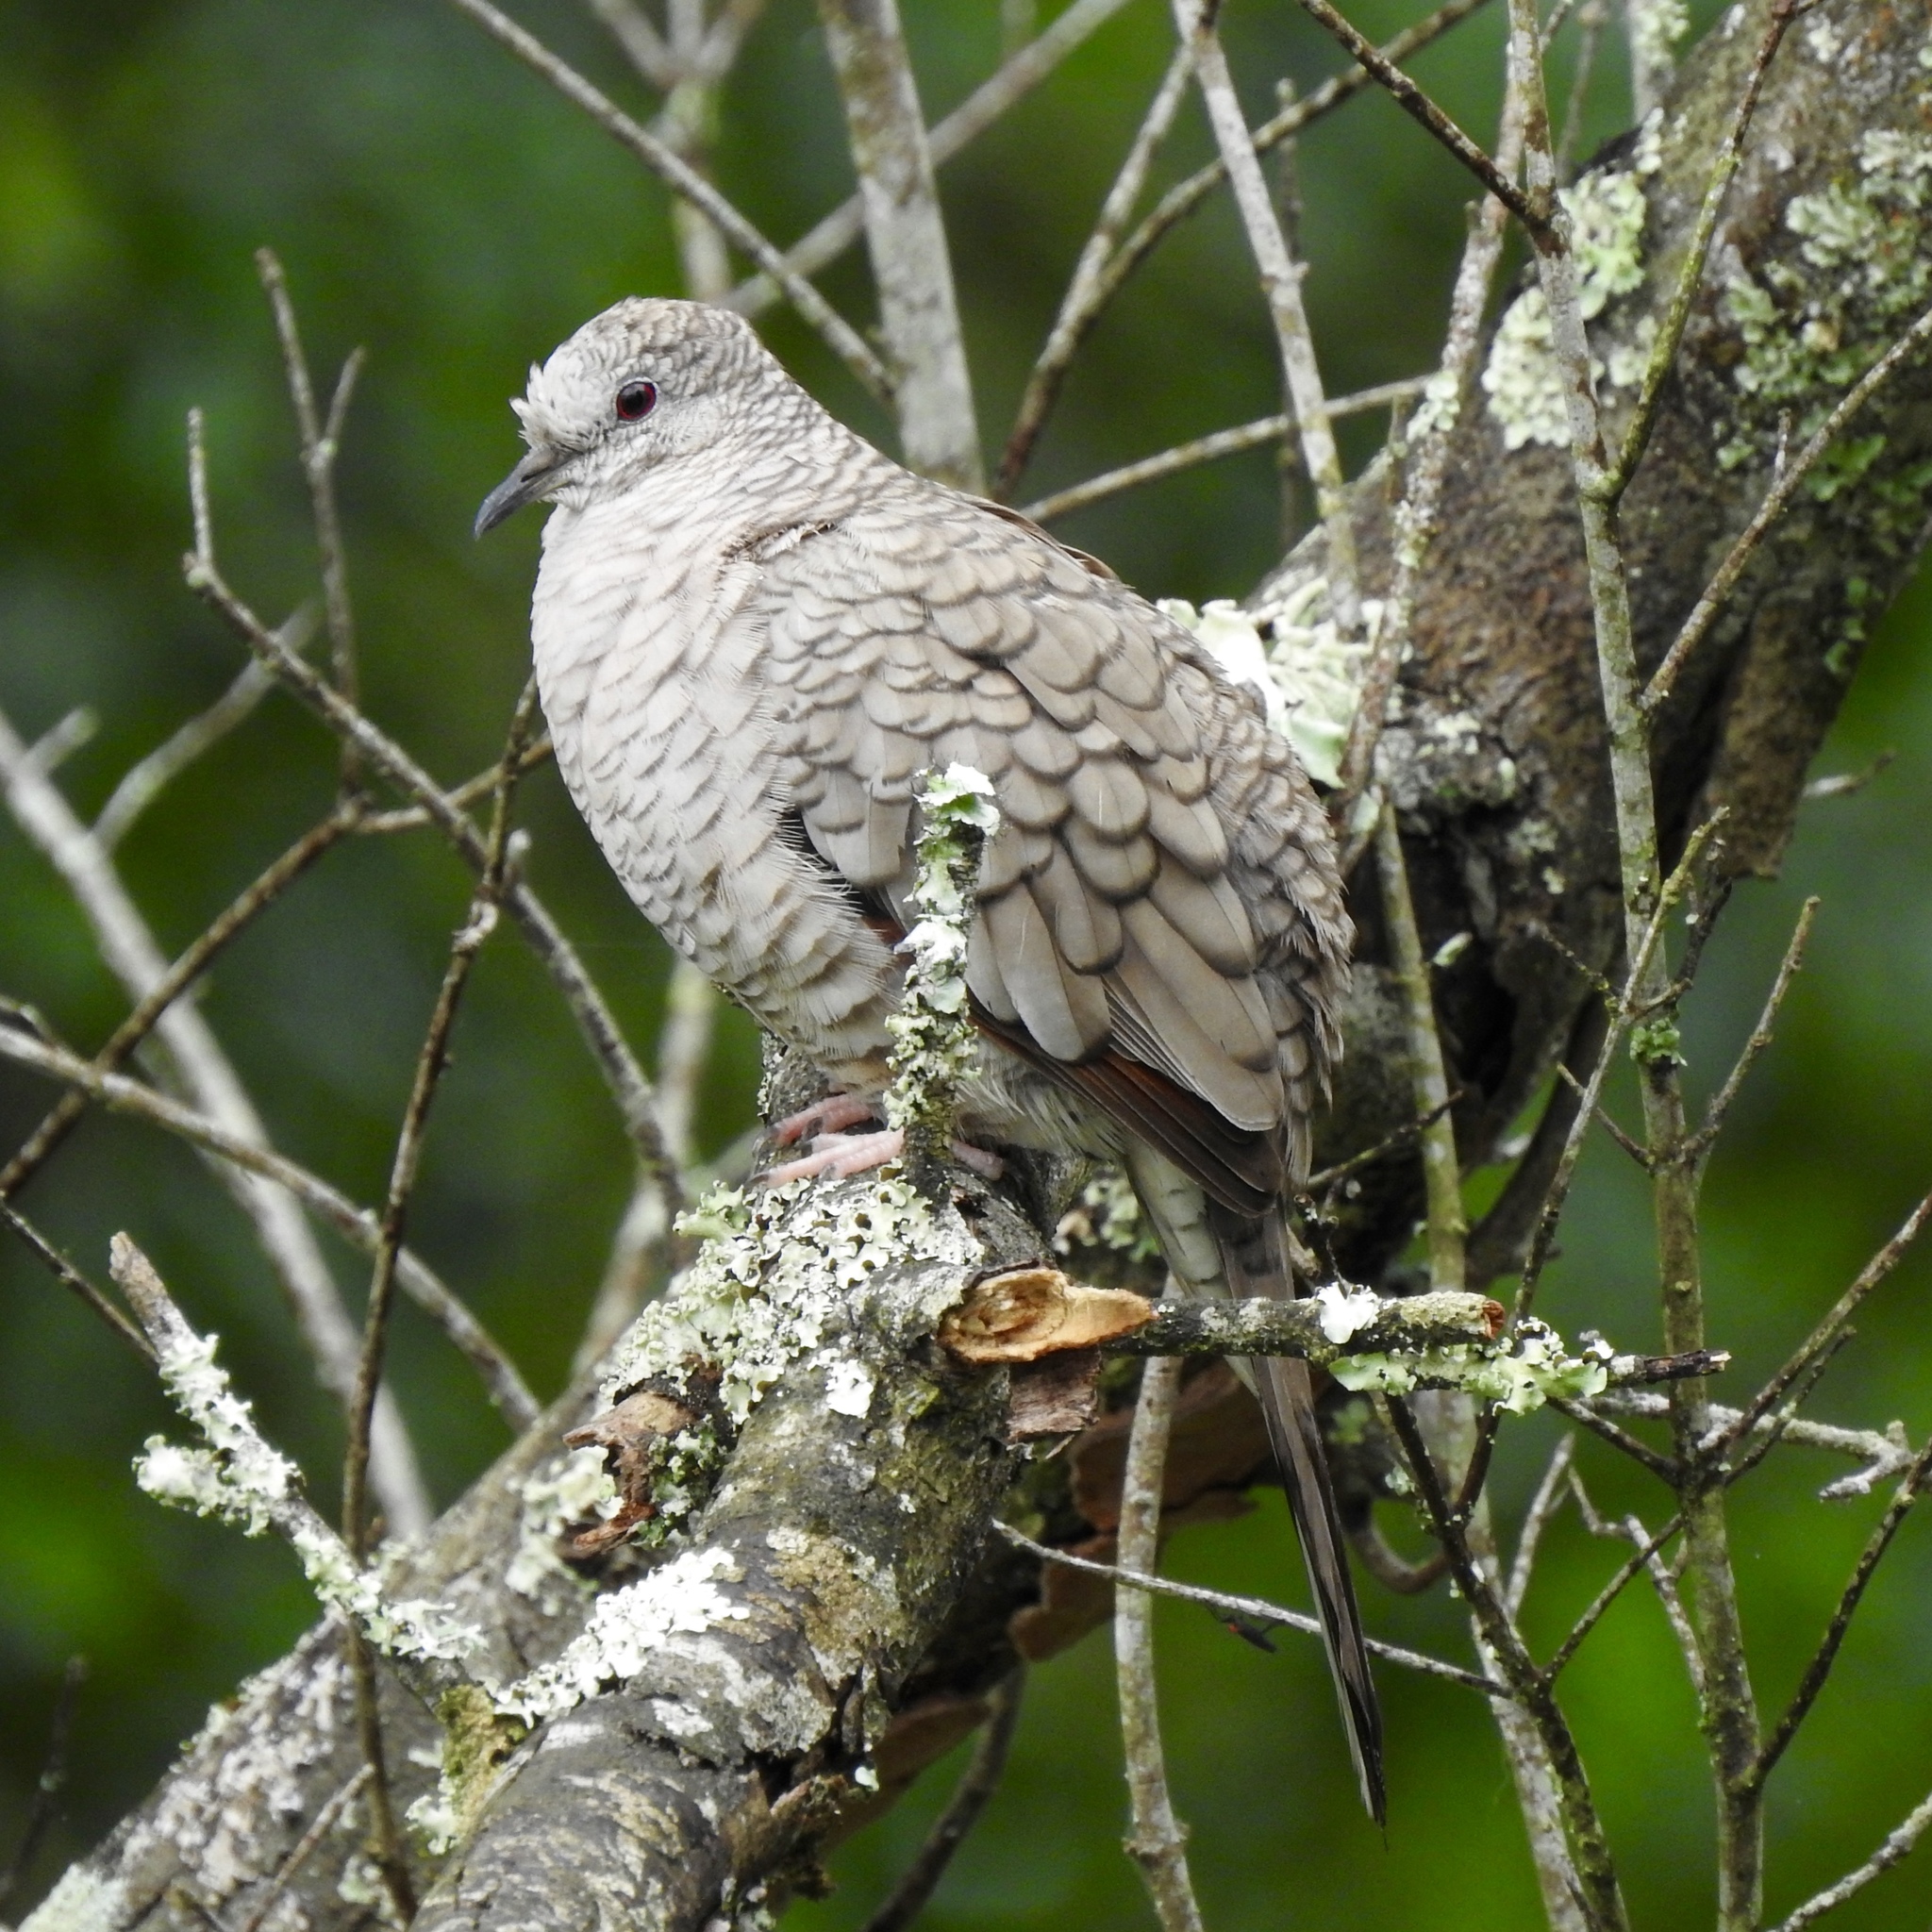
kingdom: Animalia
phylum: Chordata
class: Aves
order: Columbiformes
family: Columbidae
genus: Columbina
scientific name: Columbina inca
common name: Inca dove
